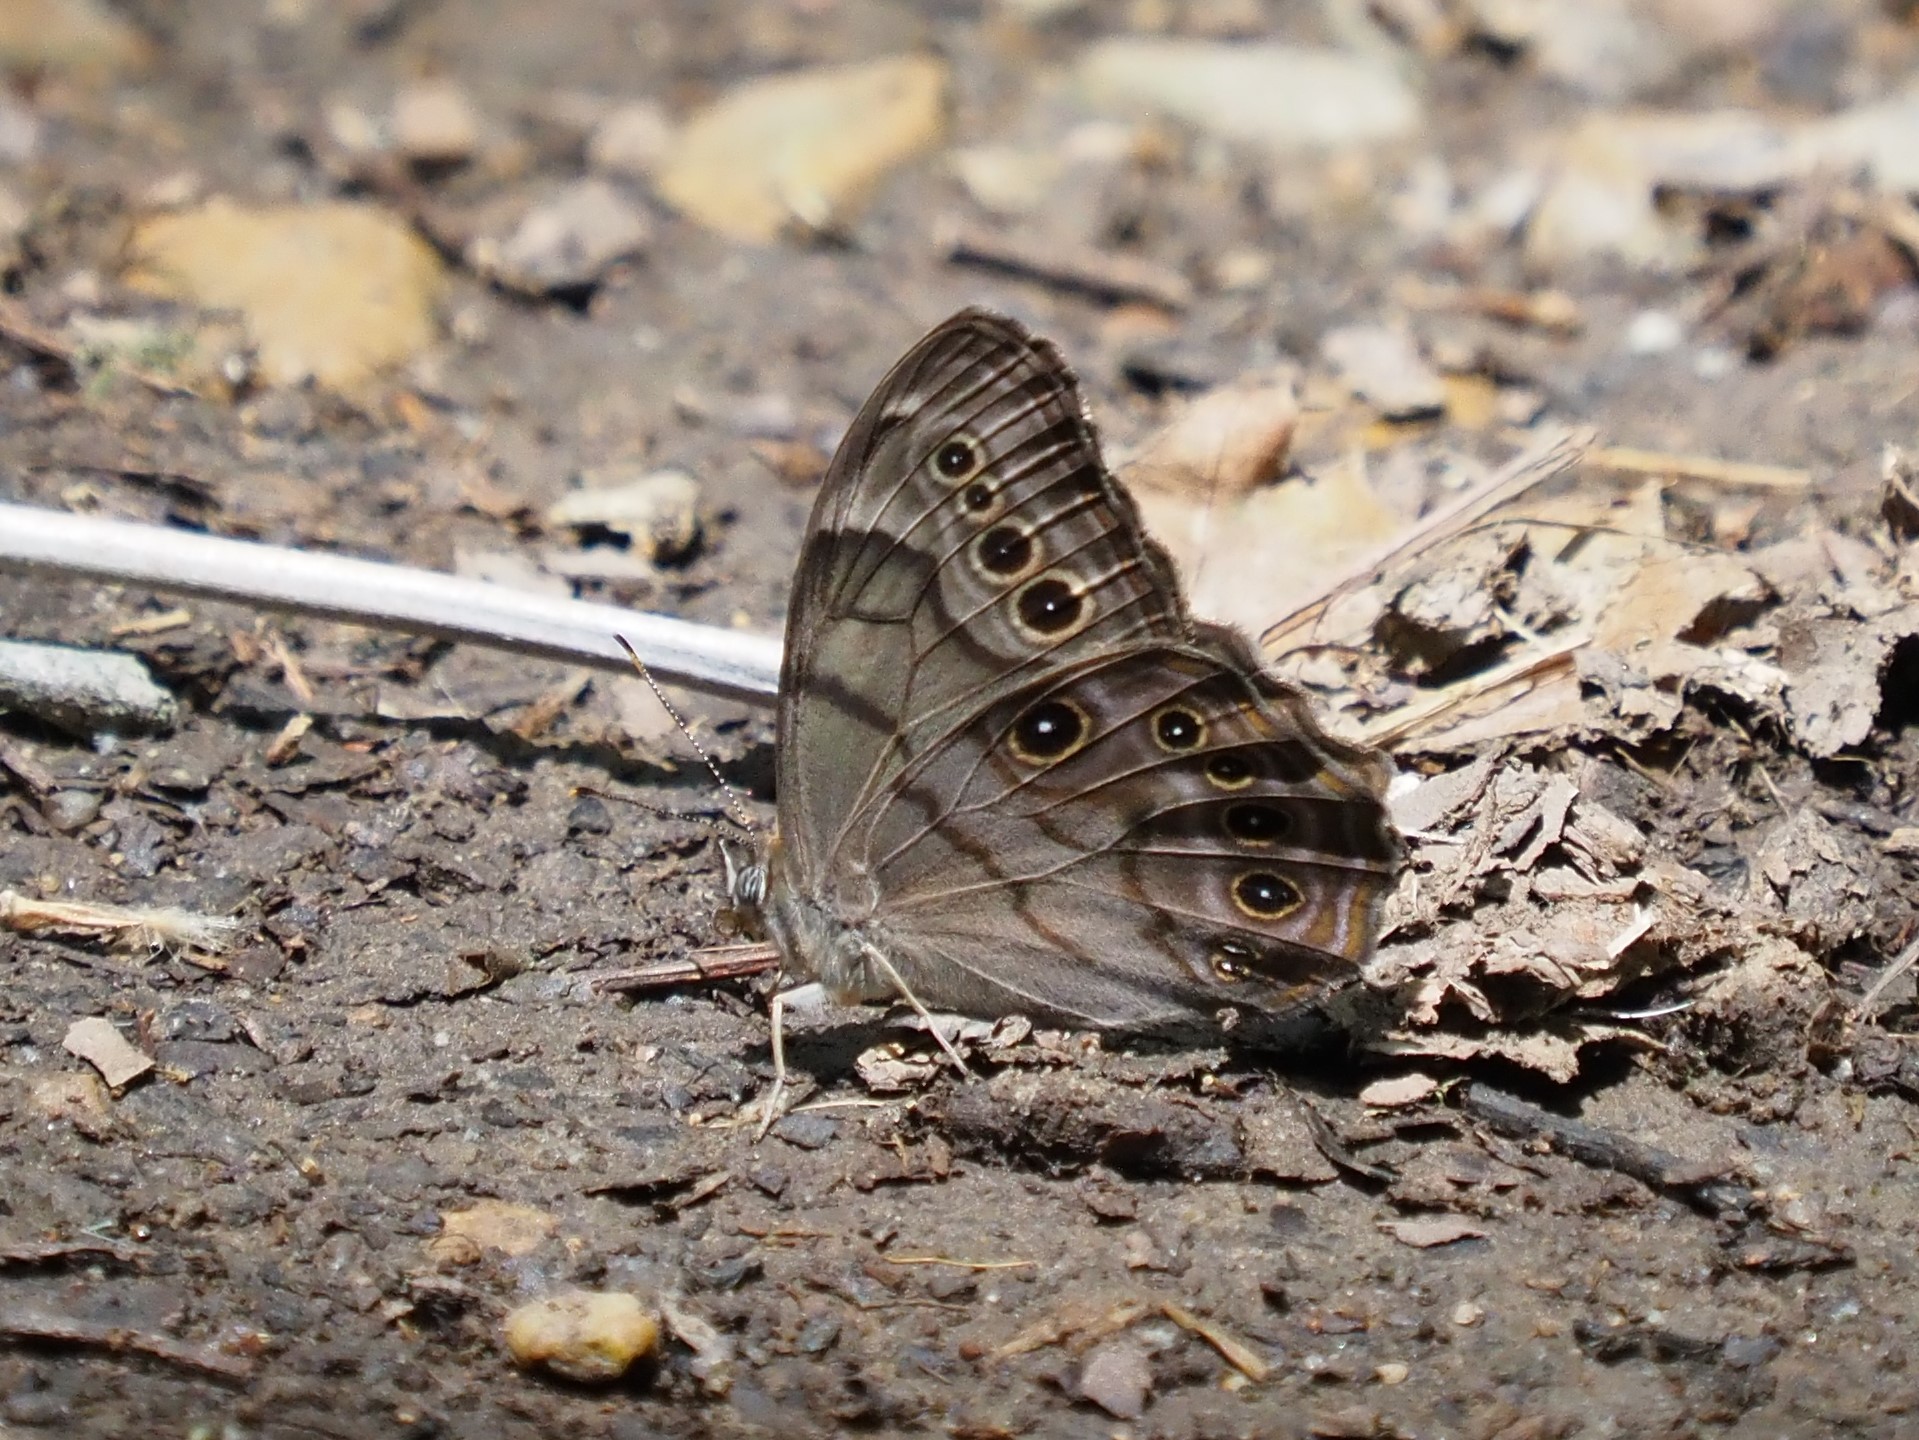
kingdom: Animalia
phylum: Arthropoda
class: Insecta
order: Lepidoptera
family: Nymphalidae
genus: Lethe
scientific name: Lethe anthedon
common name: Northern pearly-eye
